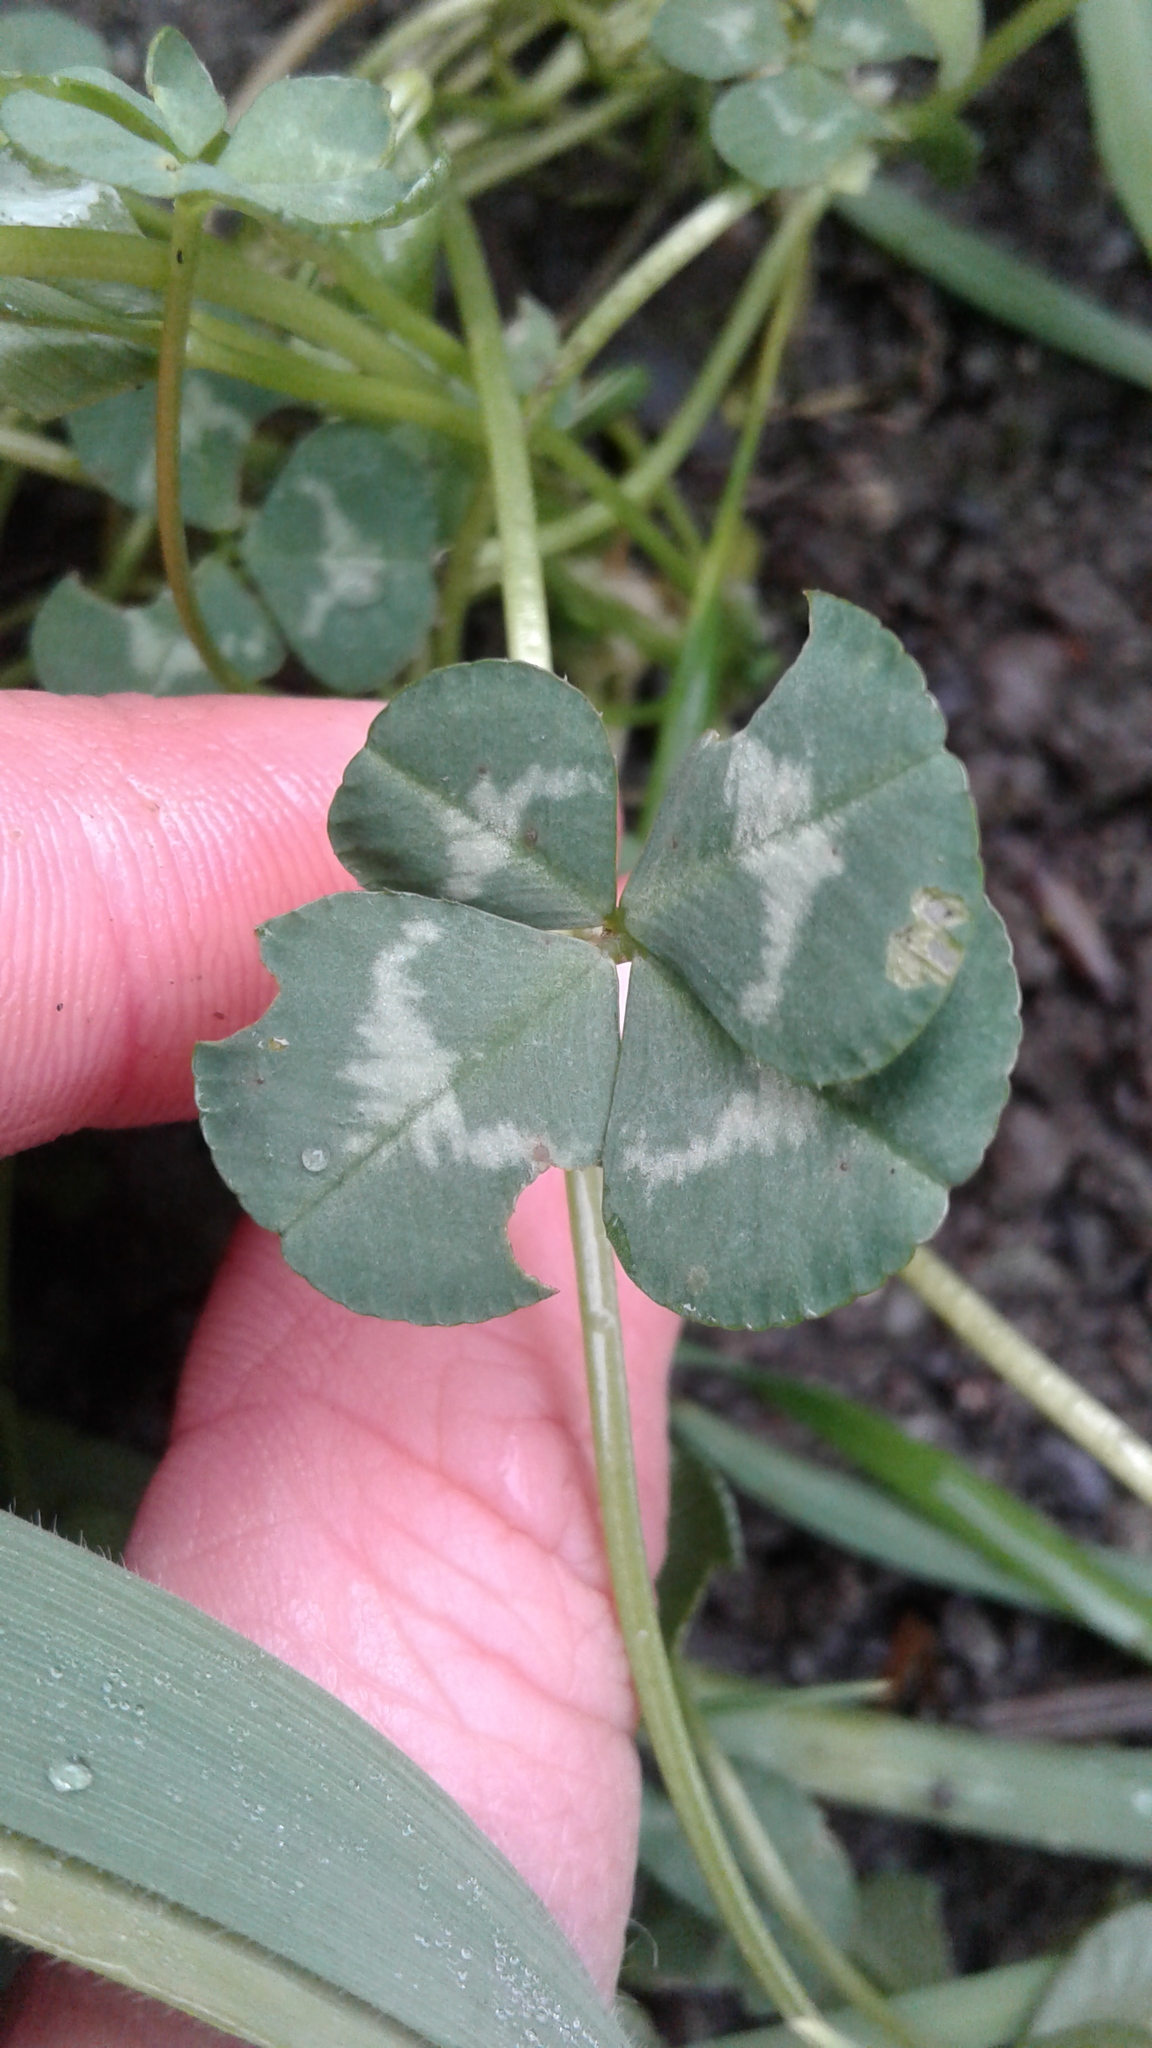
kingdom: Plantae
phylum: Tracheophyta
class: Magnoliopsida
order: Fabales
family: Fabaceae
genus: Trifolium
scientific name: Trifolium repens
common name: White clover
